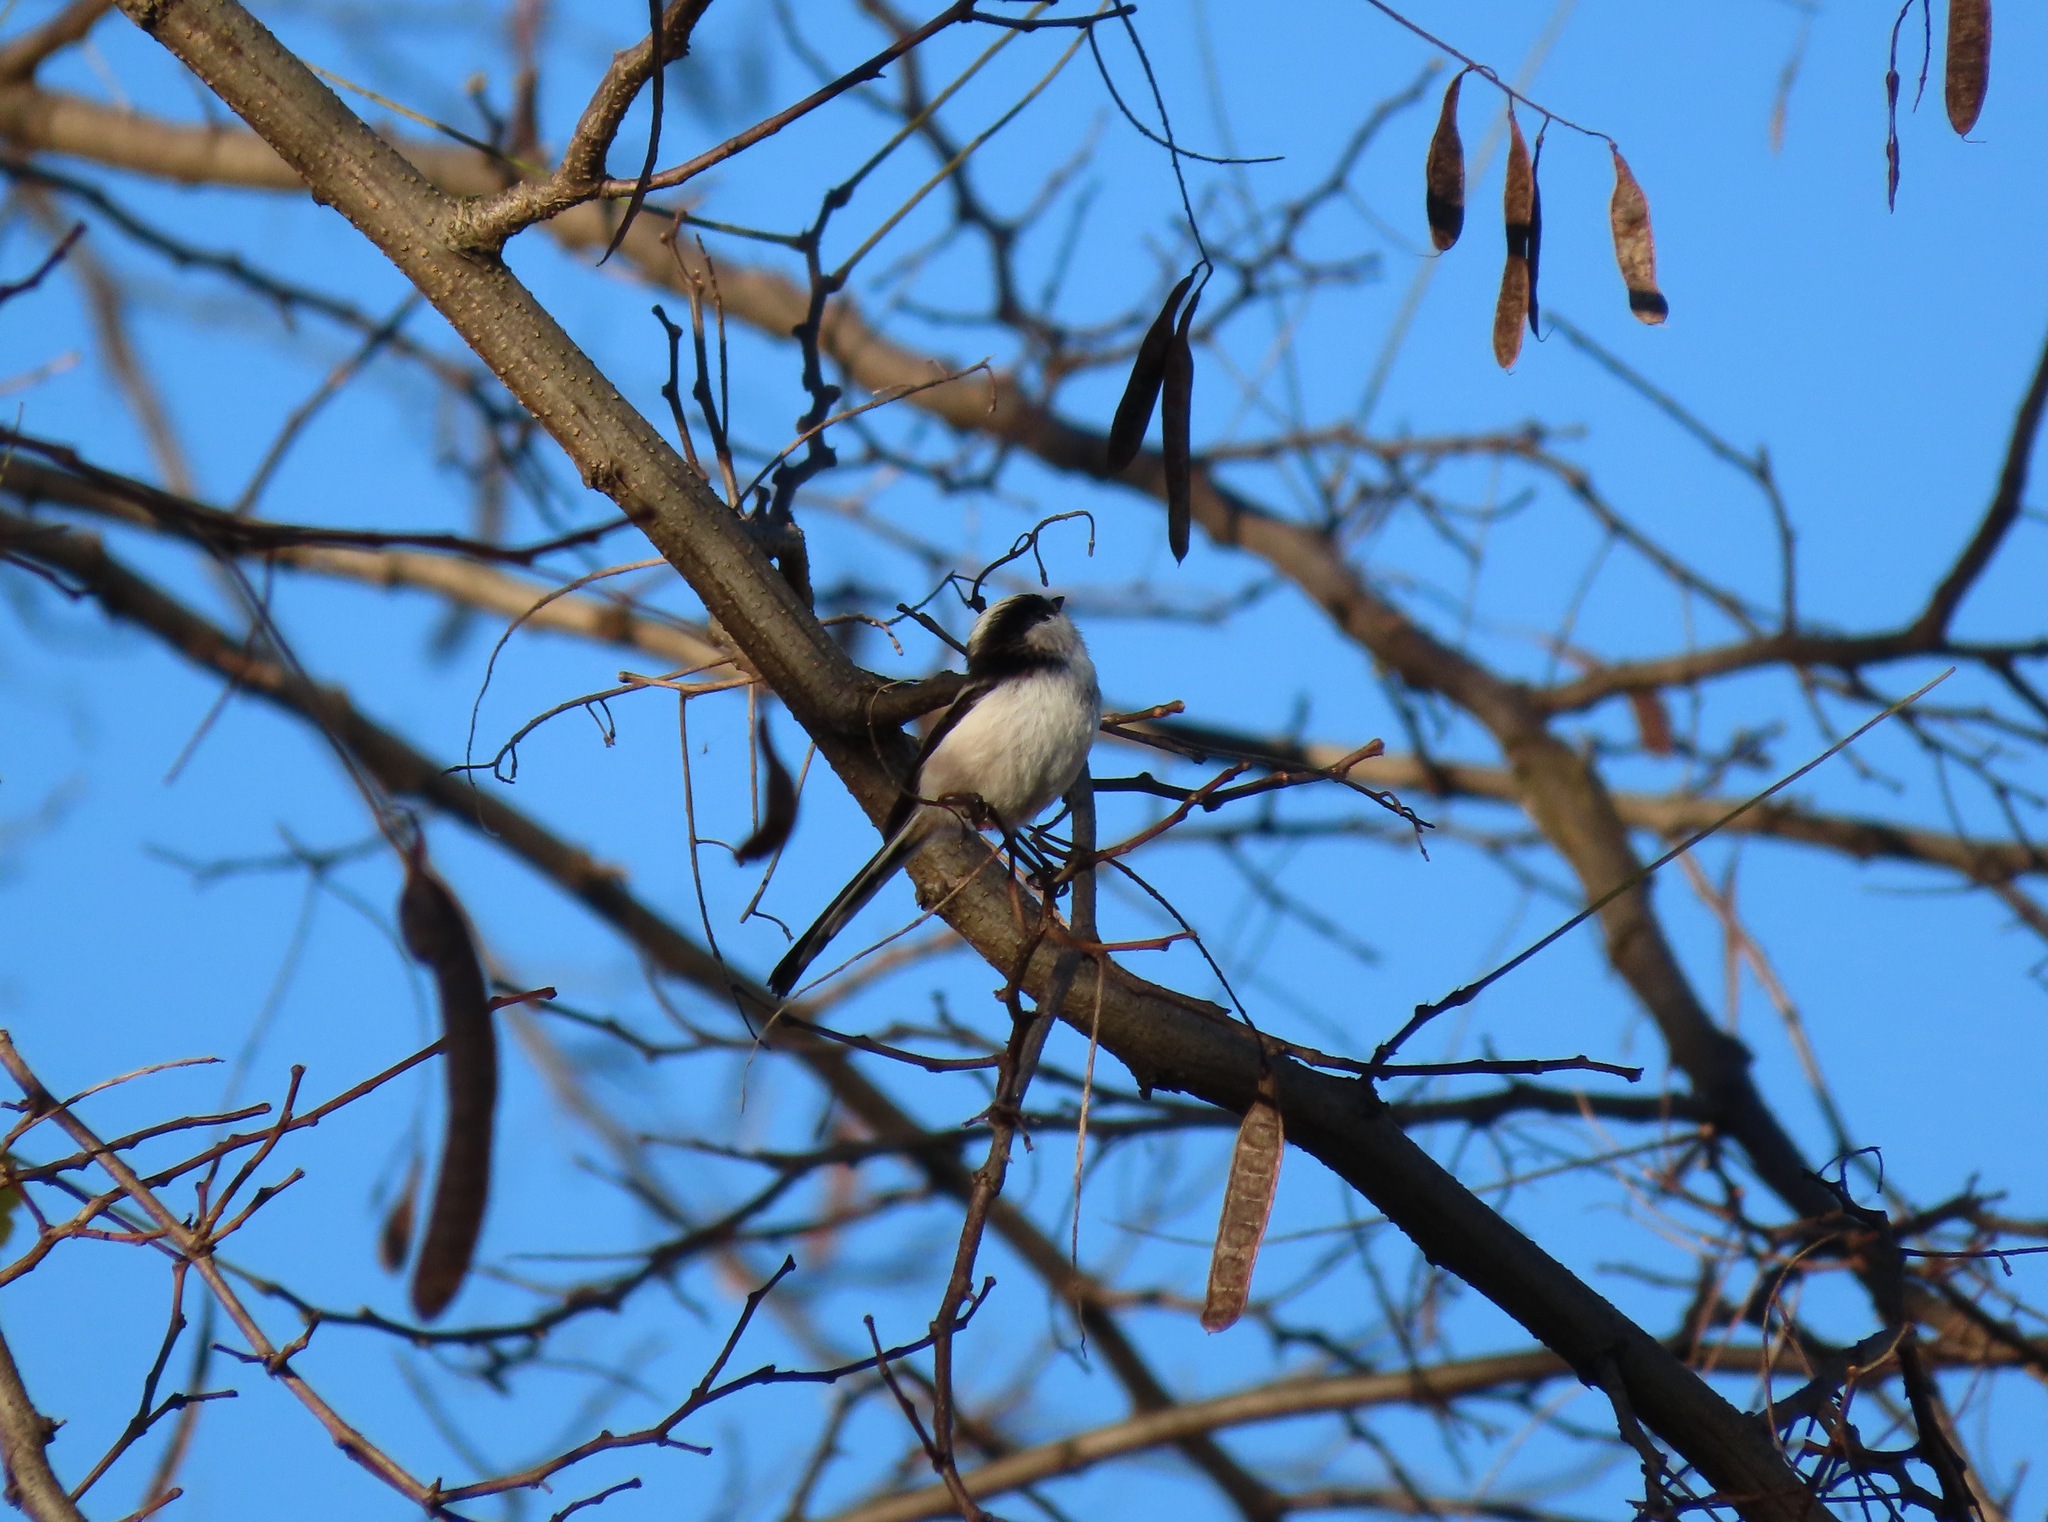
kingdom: Animalia
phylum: Chordata
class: Aves
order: Passeriformes
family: Aegithalidae
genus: Aegithalos
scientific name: Aegithalos caudatus
